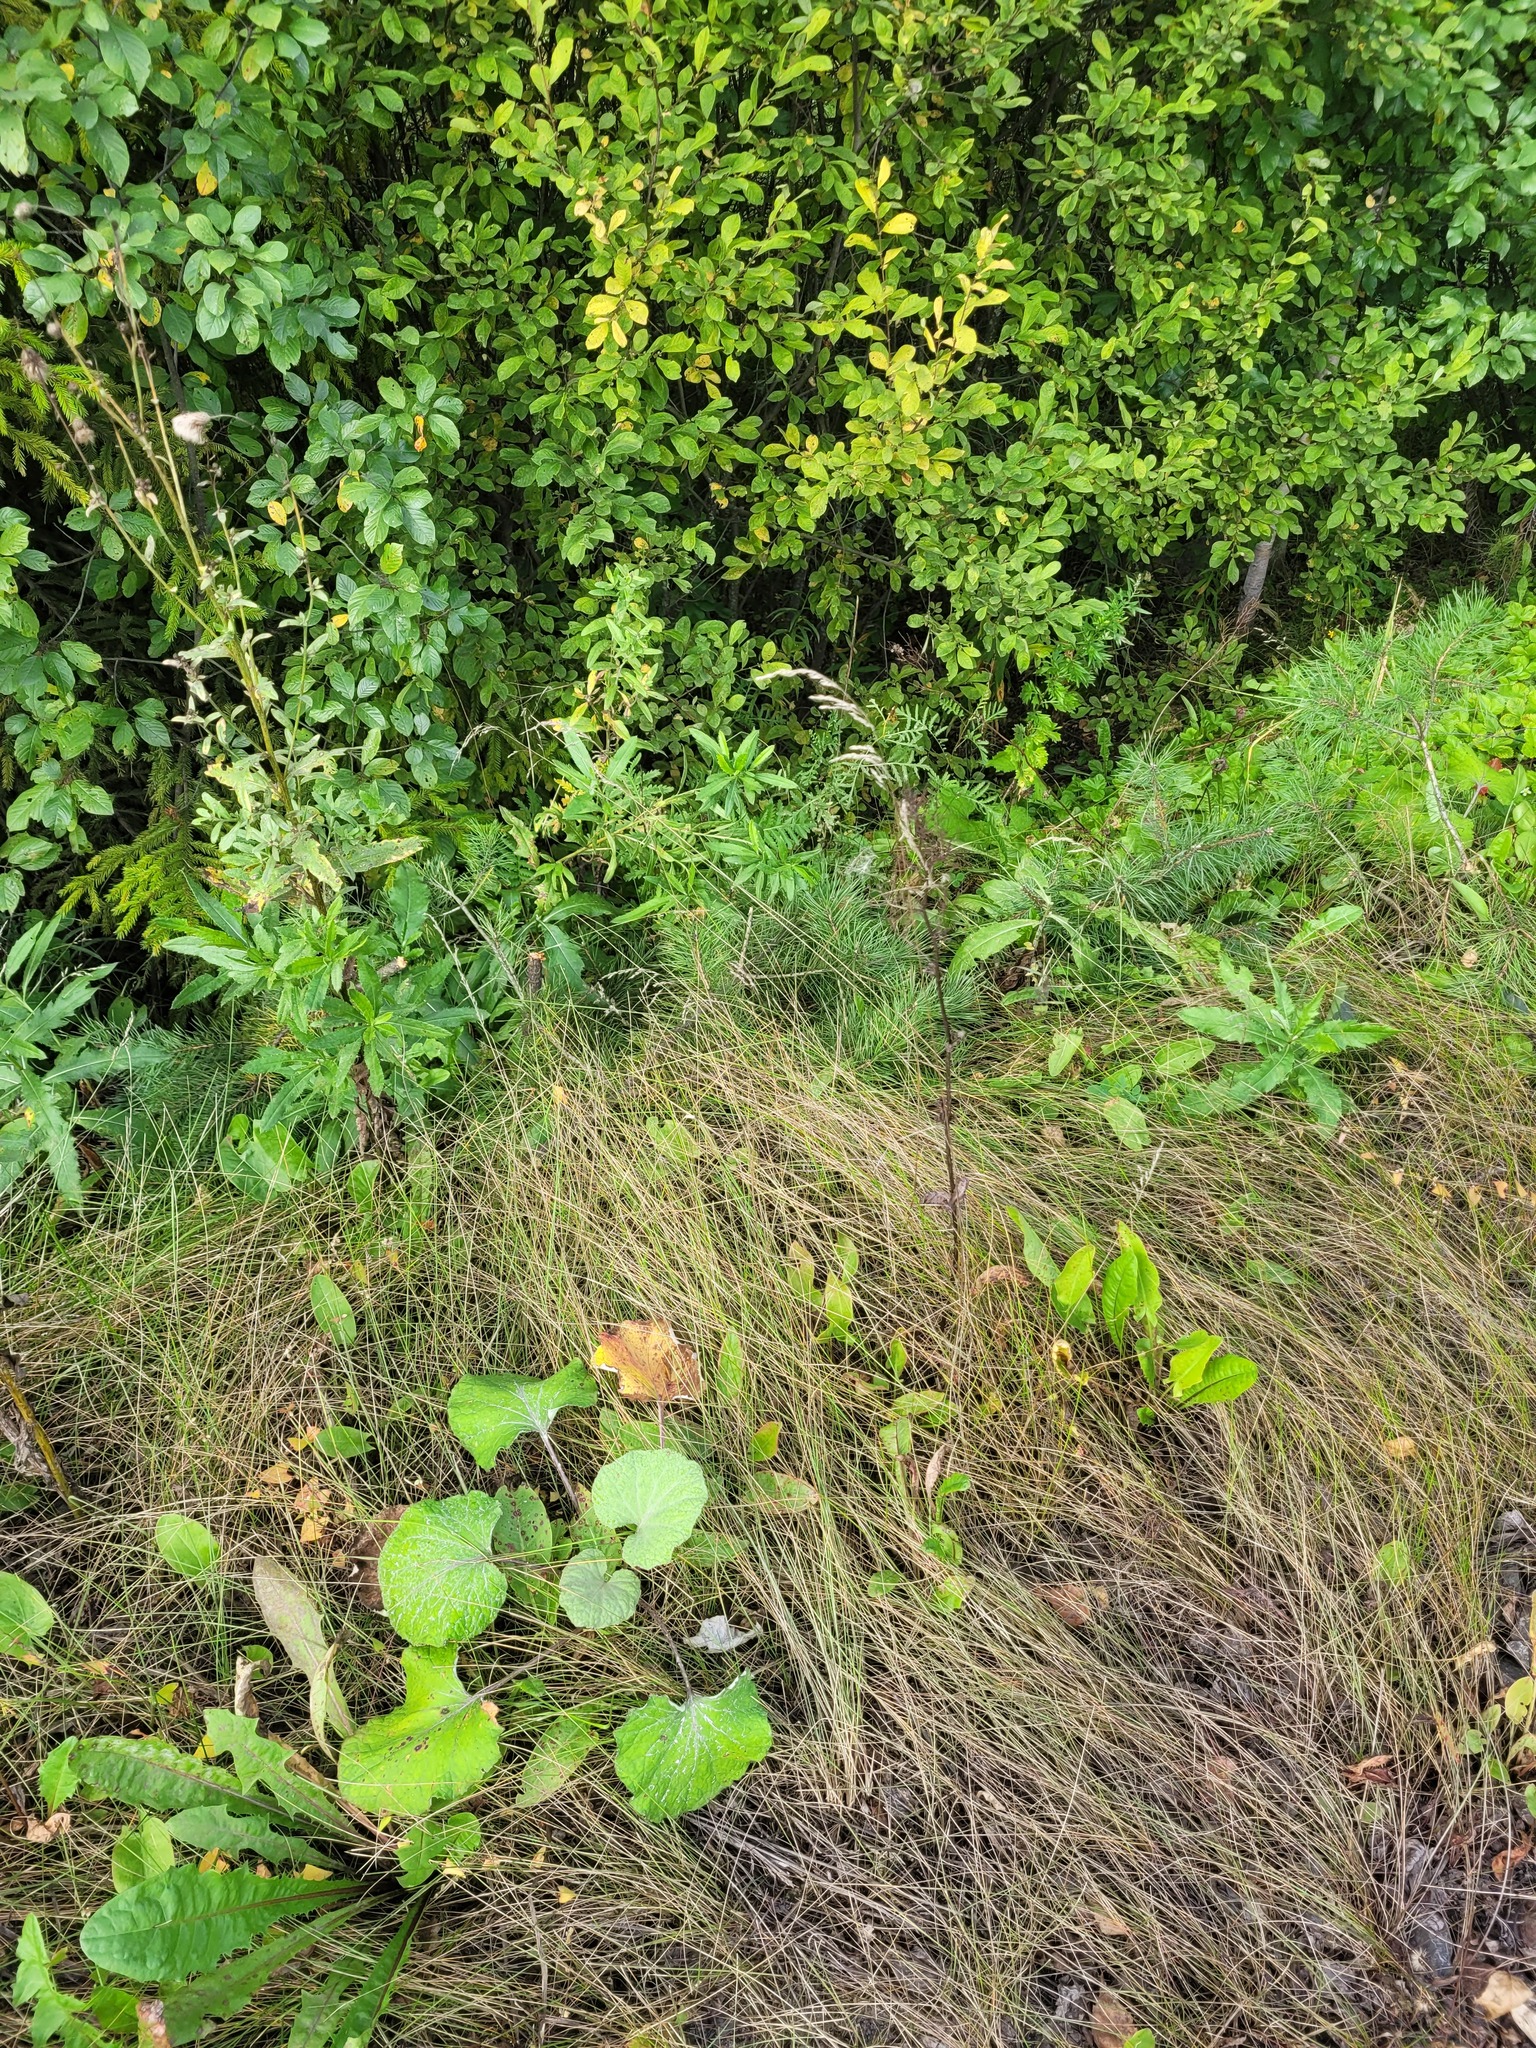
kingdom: Plantae
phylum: Tracheophyta
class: Liliopsida
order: Poales
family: Poaceae
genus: Poa
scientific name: Poa angustifolia
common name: Narrow-leaved meadow-grass
